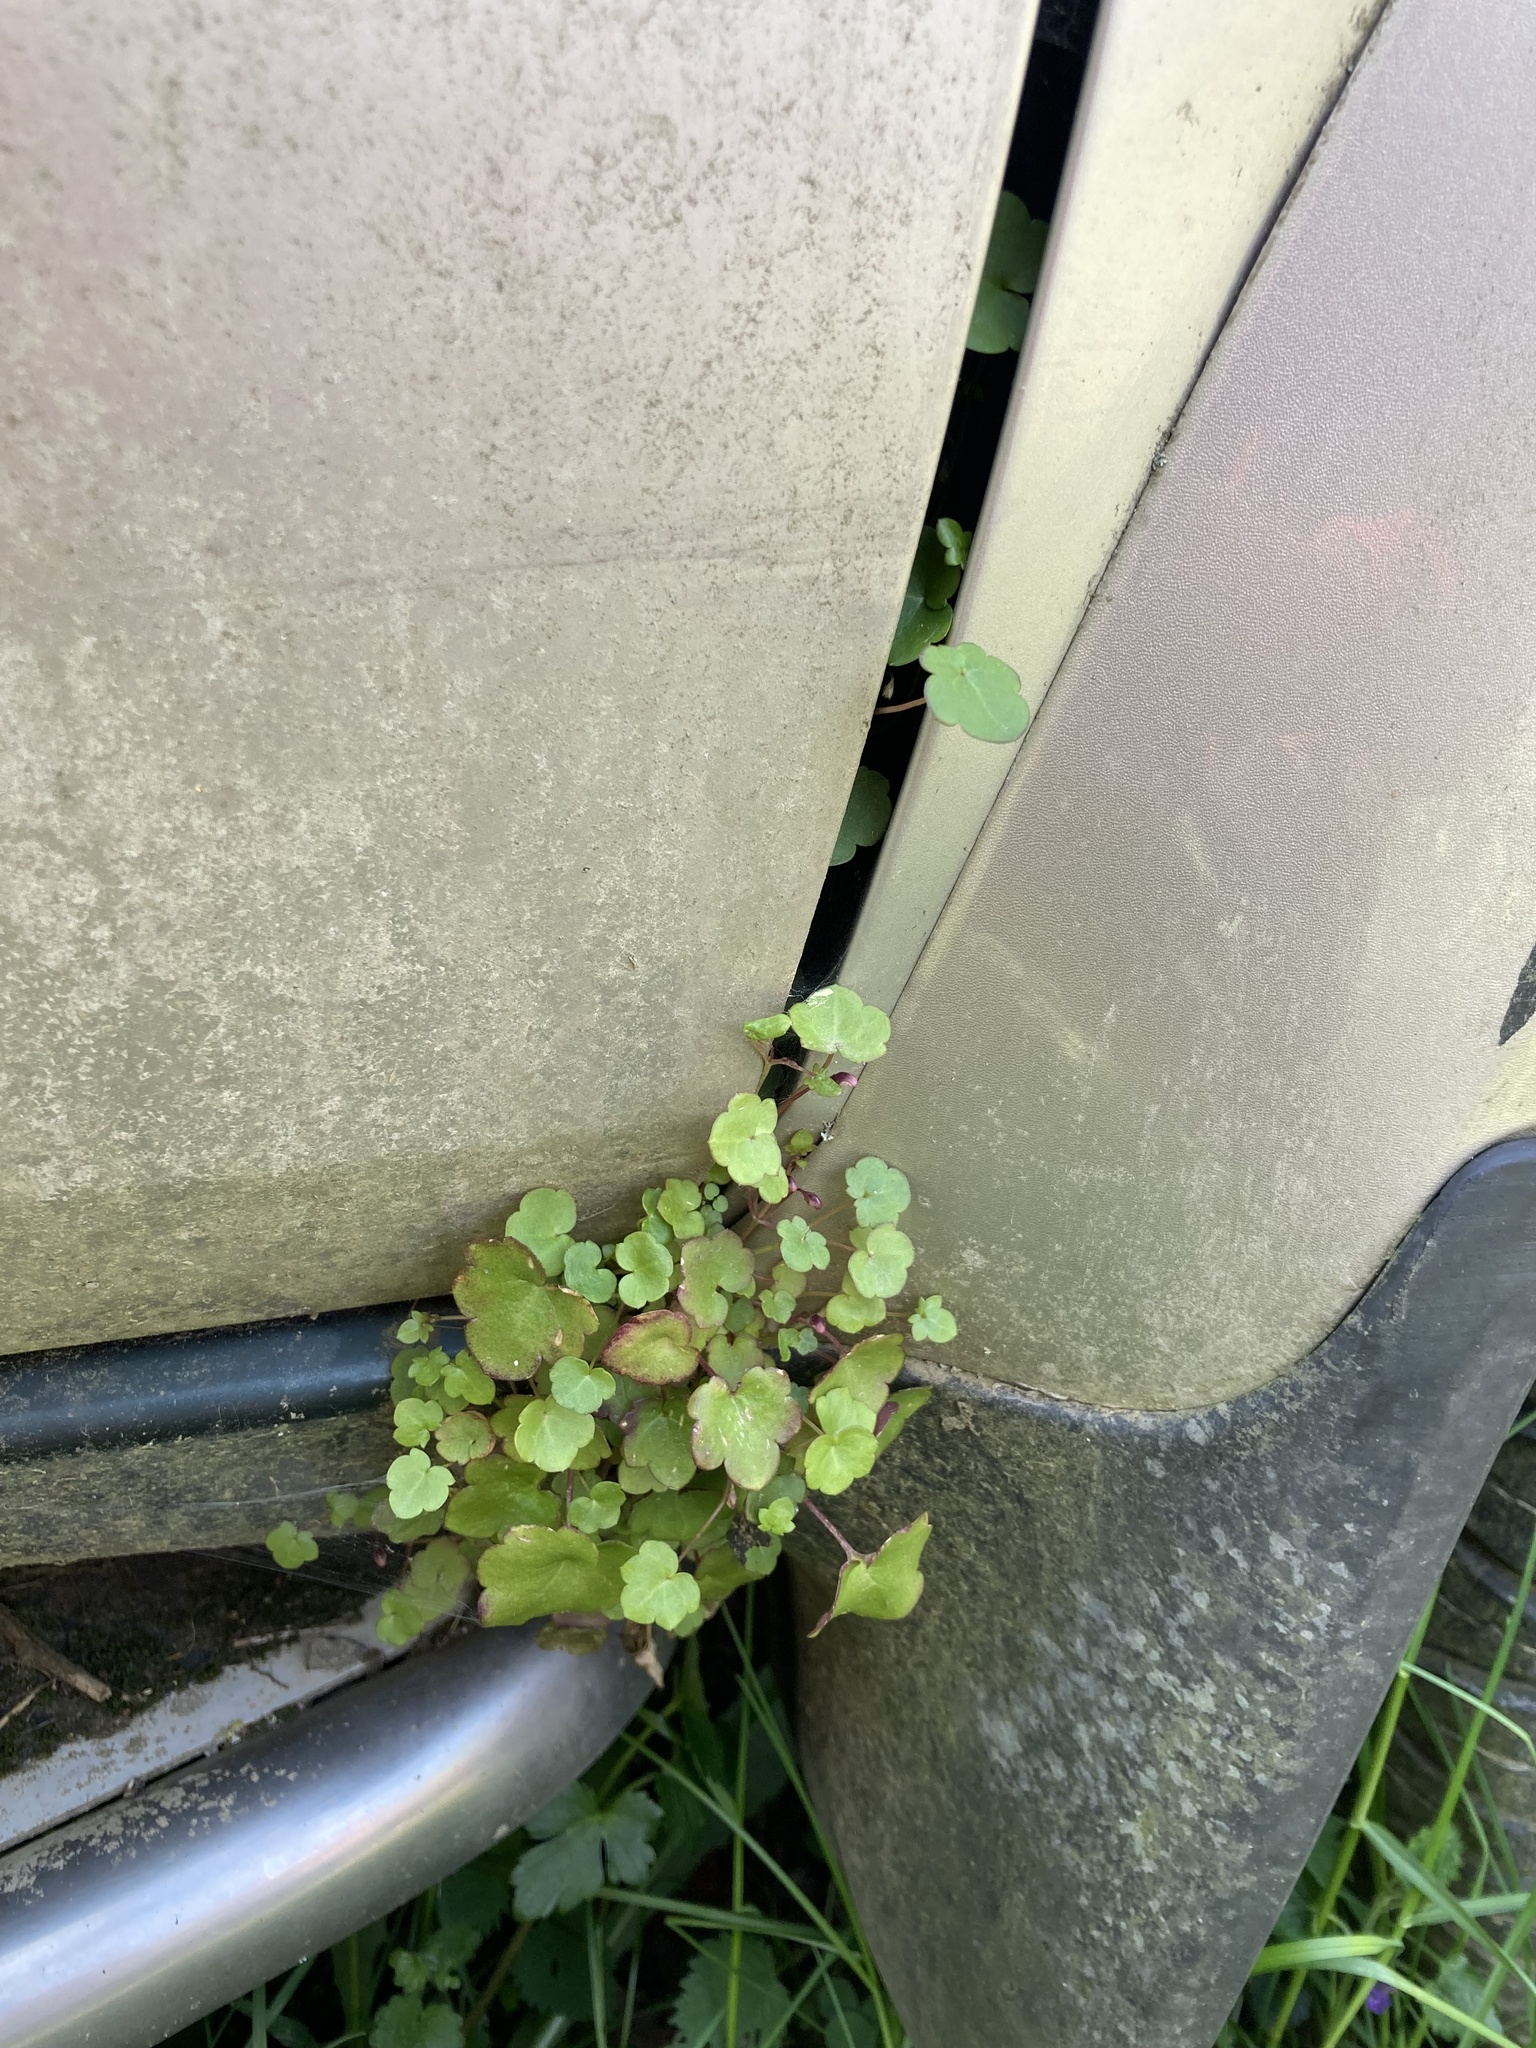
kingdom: Plantae
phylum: Tracheophyta
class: Magnoliopsida
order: Lamiales
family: Plantaginaceae
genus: Cymbalaria
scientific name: Cymbalaria muralis
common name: Ivy-leaved toadflax
